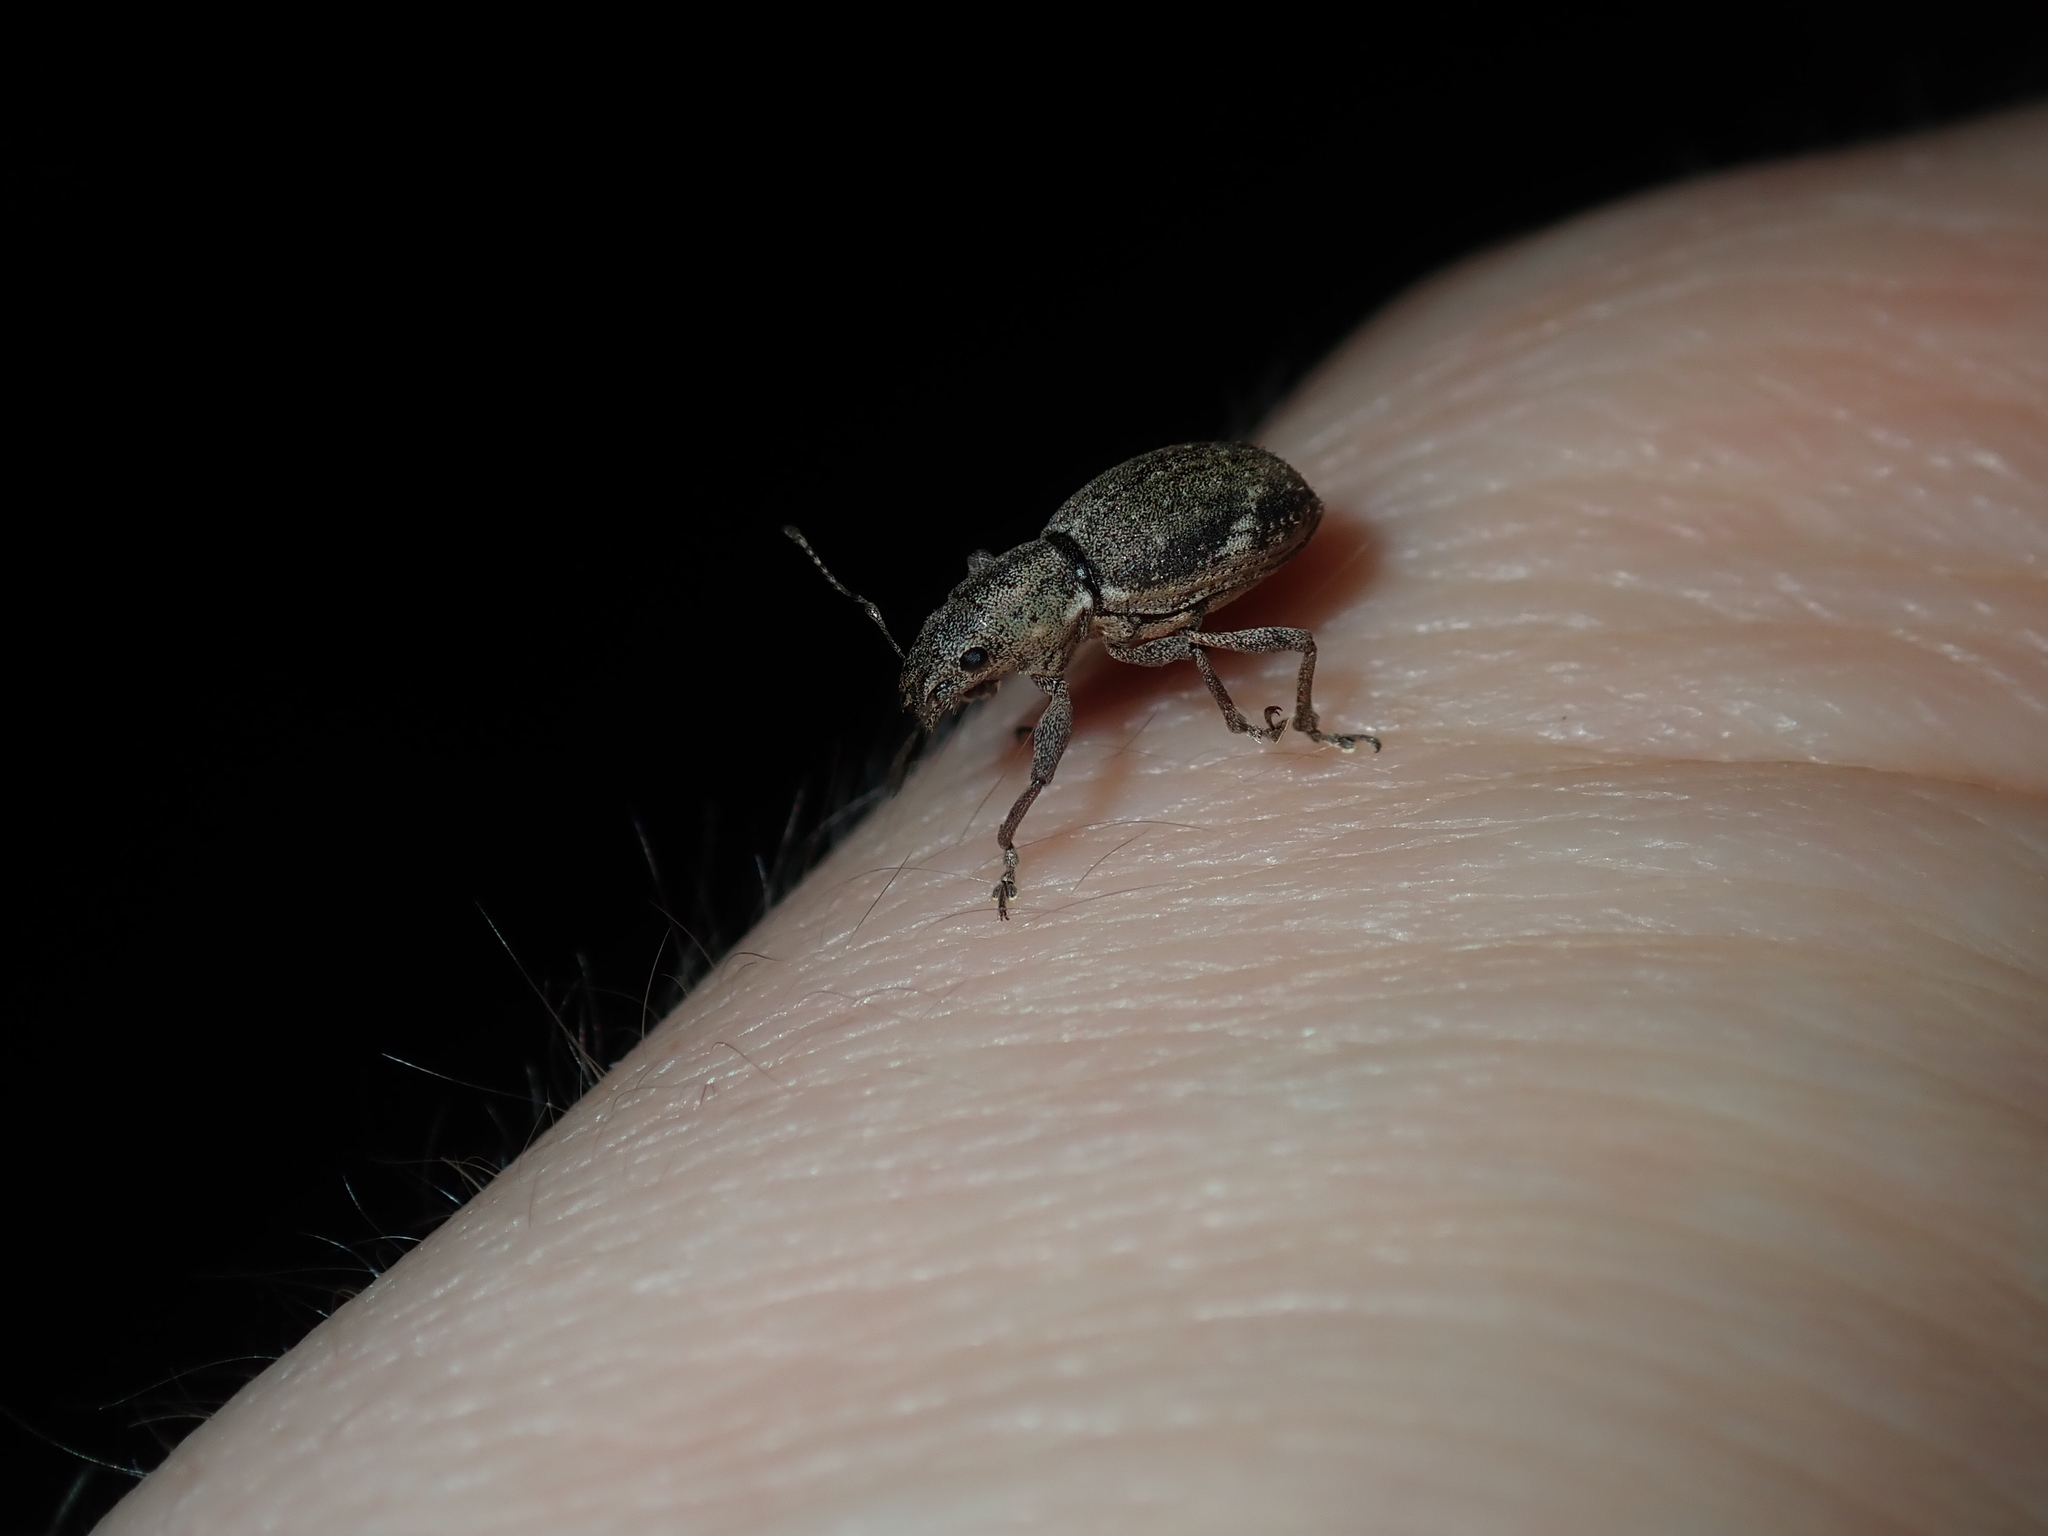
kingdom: Animalia
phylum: Arthropoda
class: Insecta
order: Coleoptera
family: Curculionidae
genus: Naupactus
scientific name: Naupactus cervinus
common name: Fuller rose beetle
